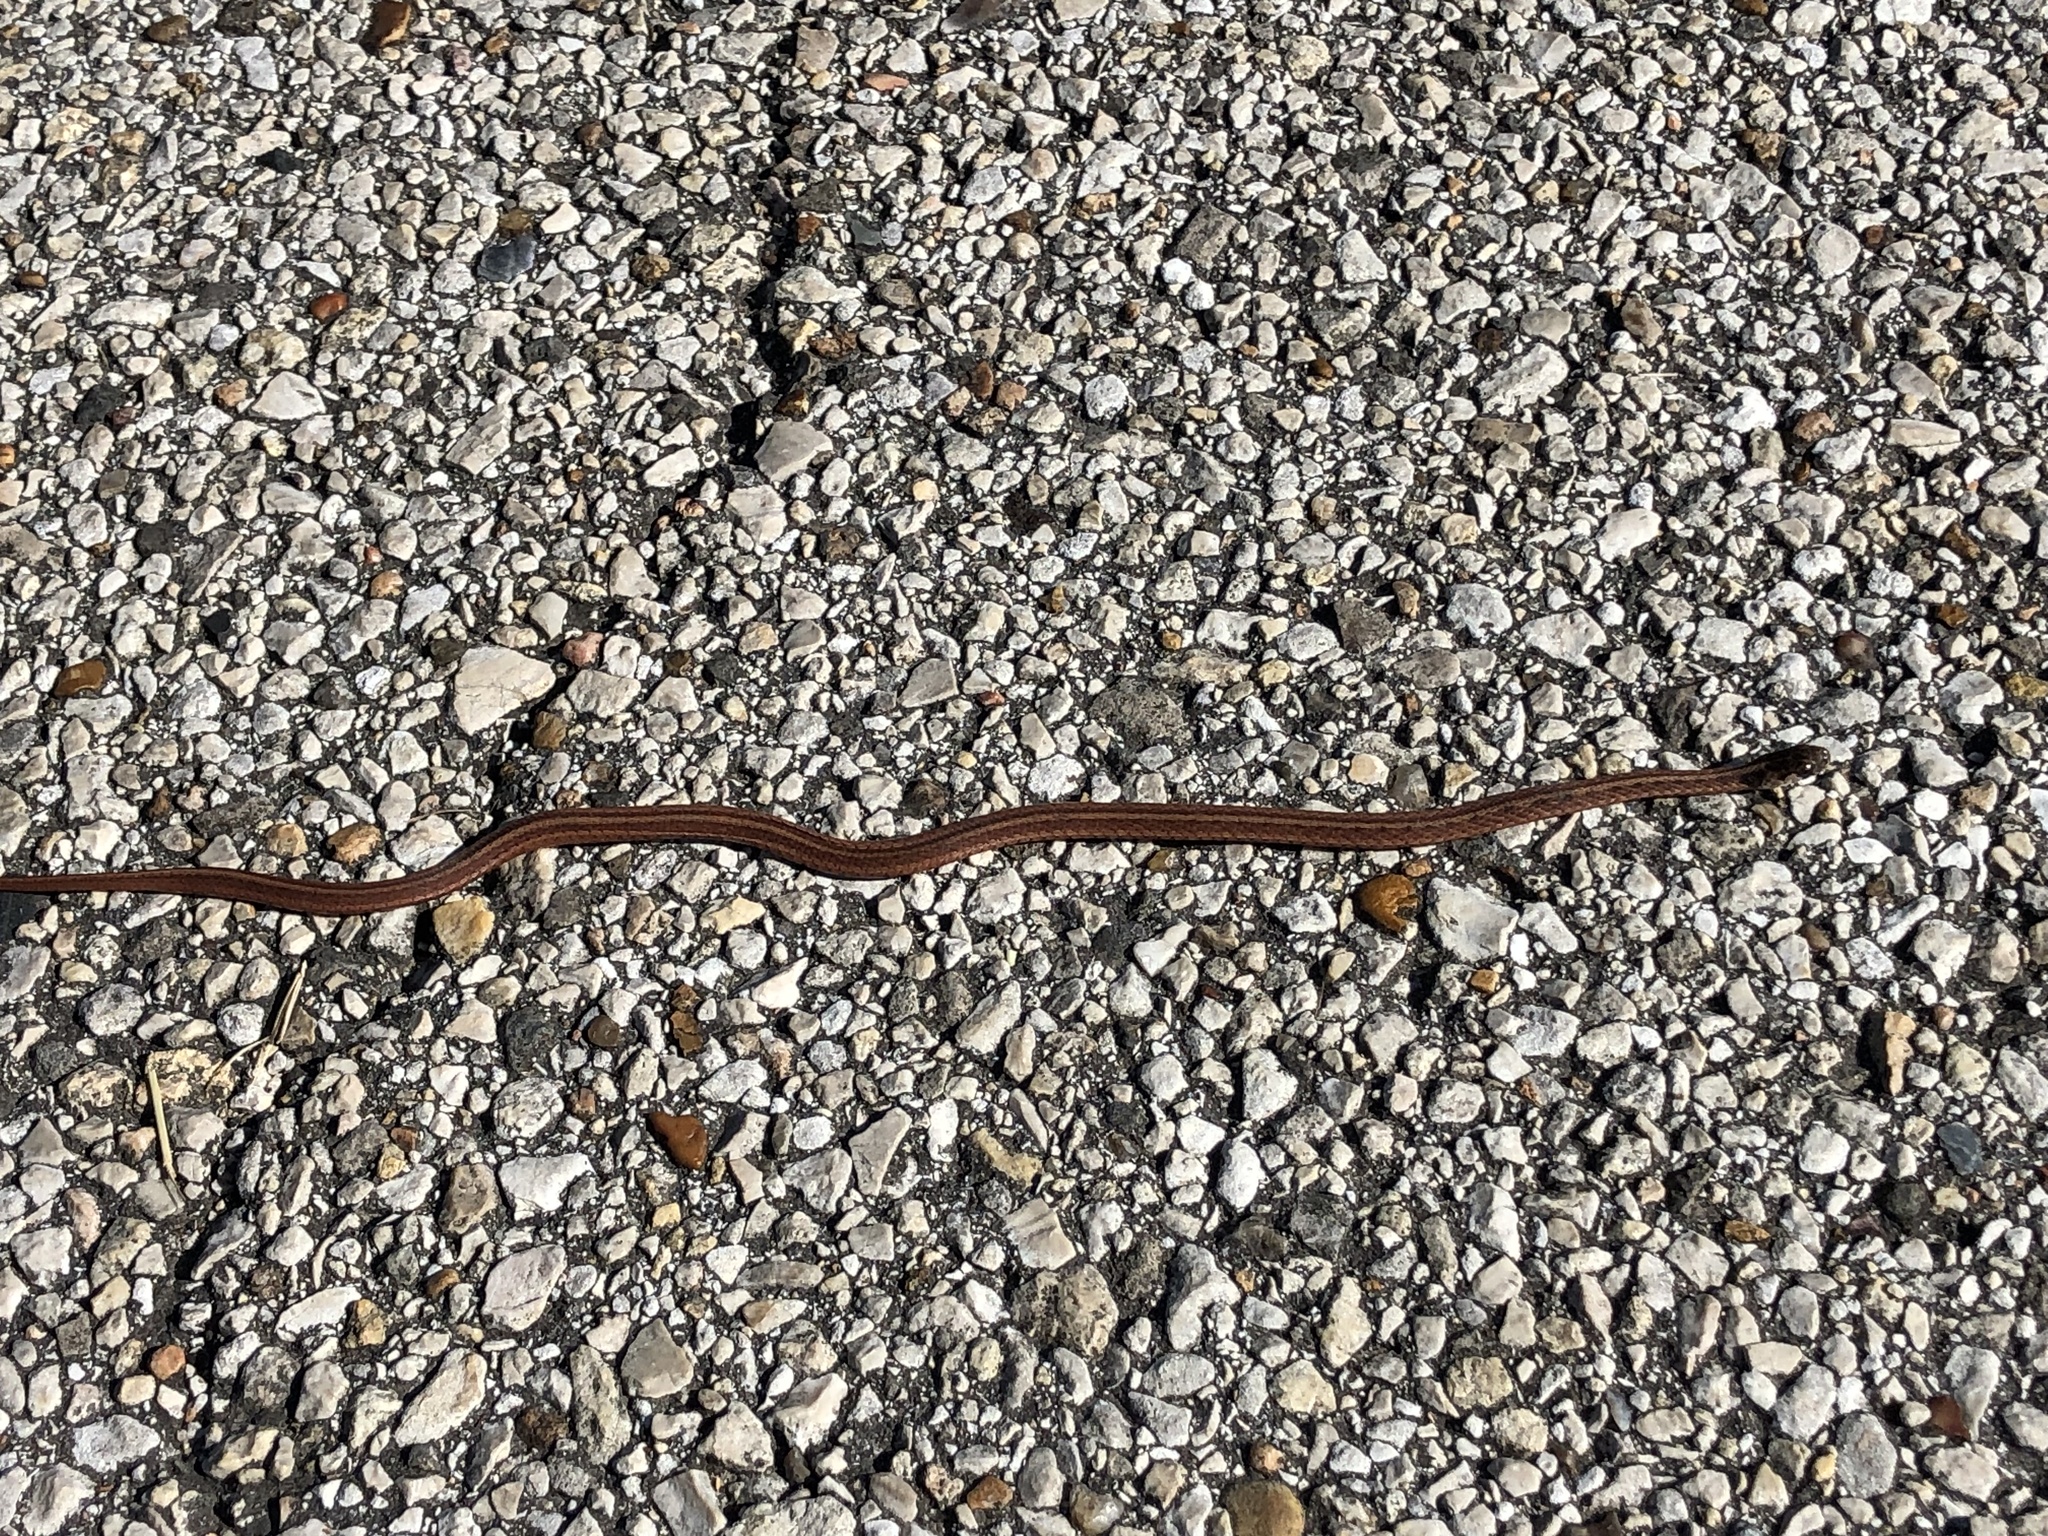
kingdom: Animalia
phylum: Chordata
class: Squamata
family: Colubridae
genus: Storeria
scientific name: Storeria dekayi
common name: (dekay’s) brown snake
